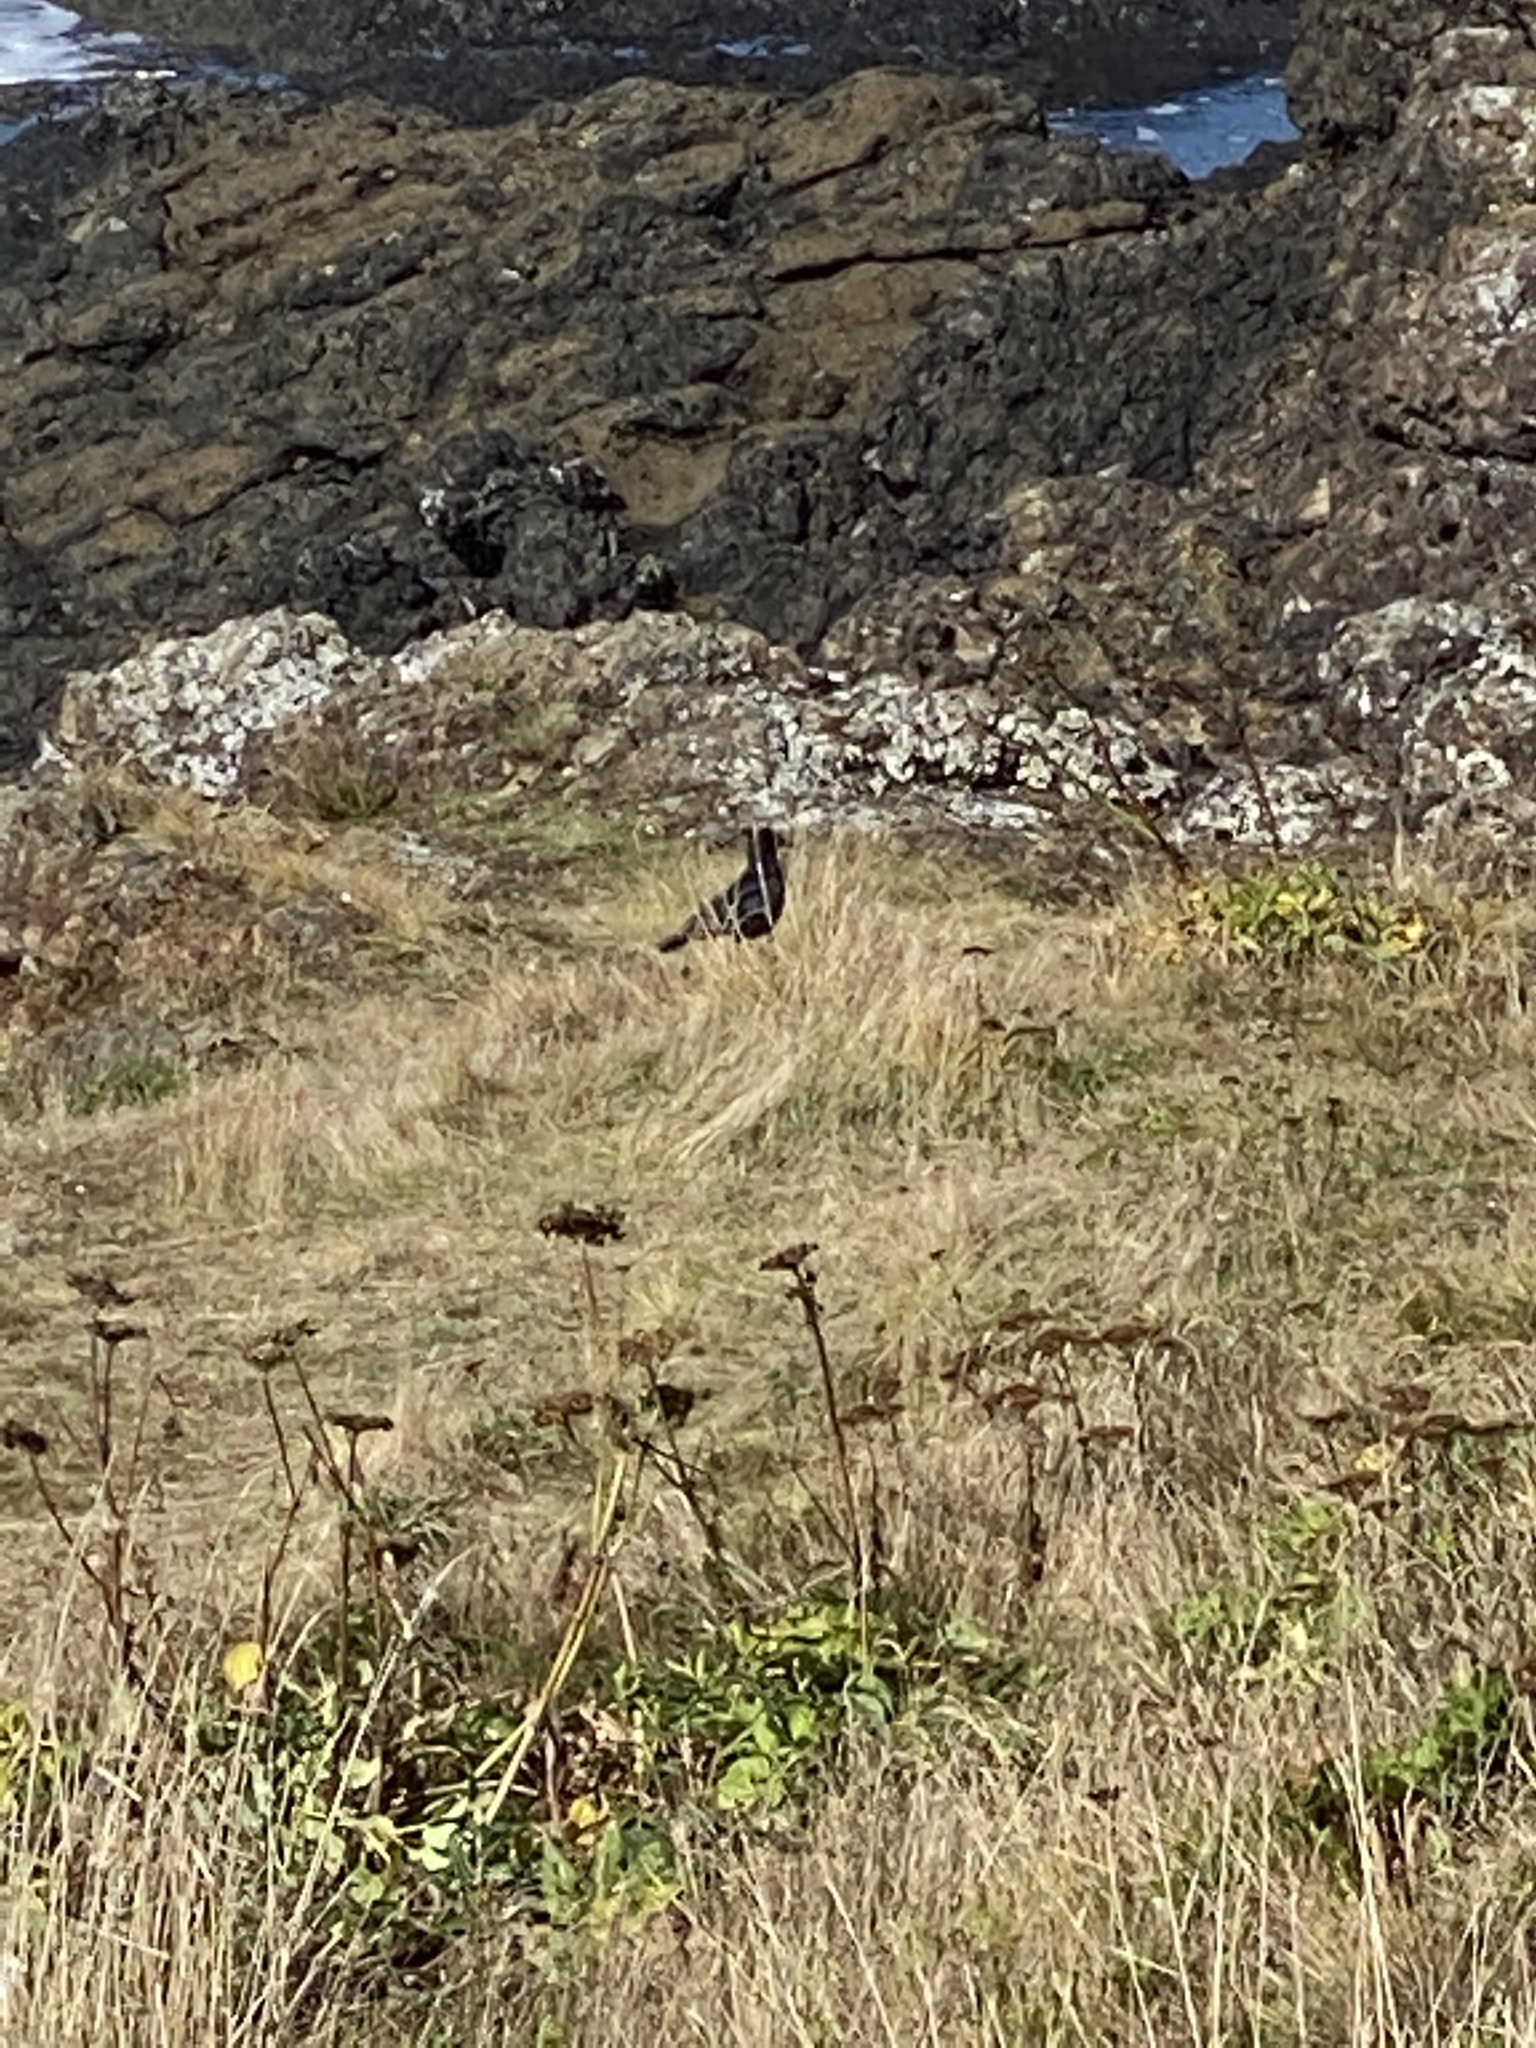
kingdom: Animalia
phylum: Chordata
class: Aves
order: Passeriformes
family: Corvidae
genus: Corvus
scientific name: Corvus brachyrhynchos
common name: American crow
